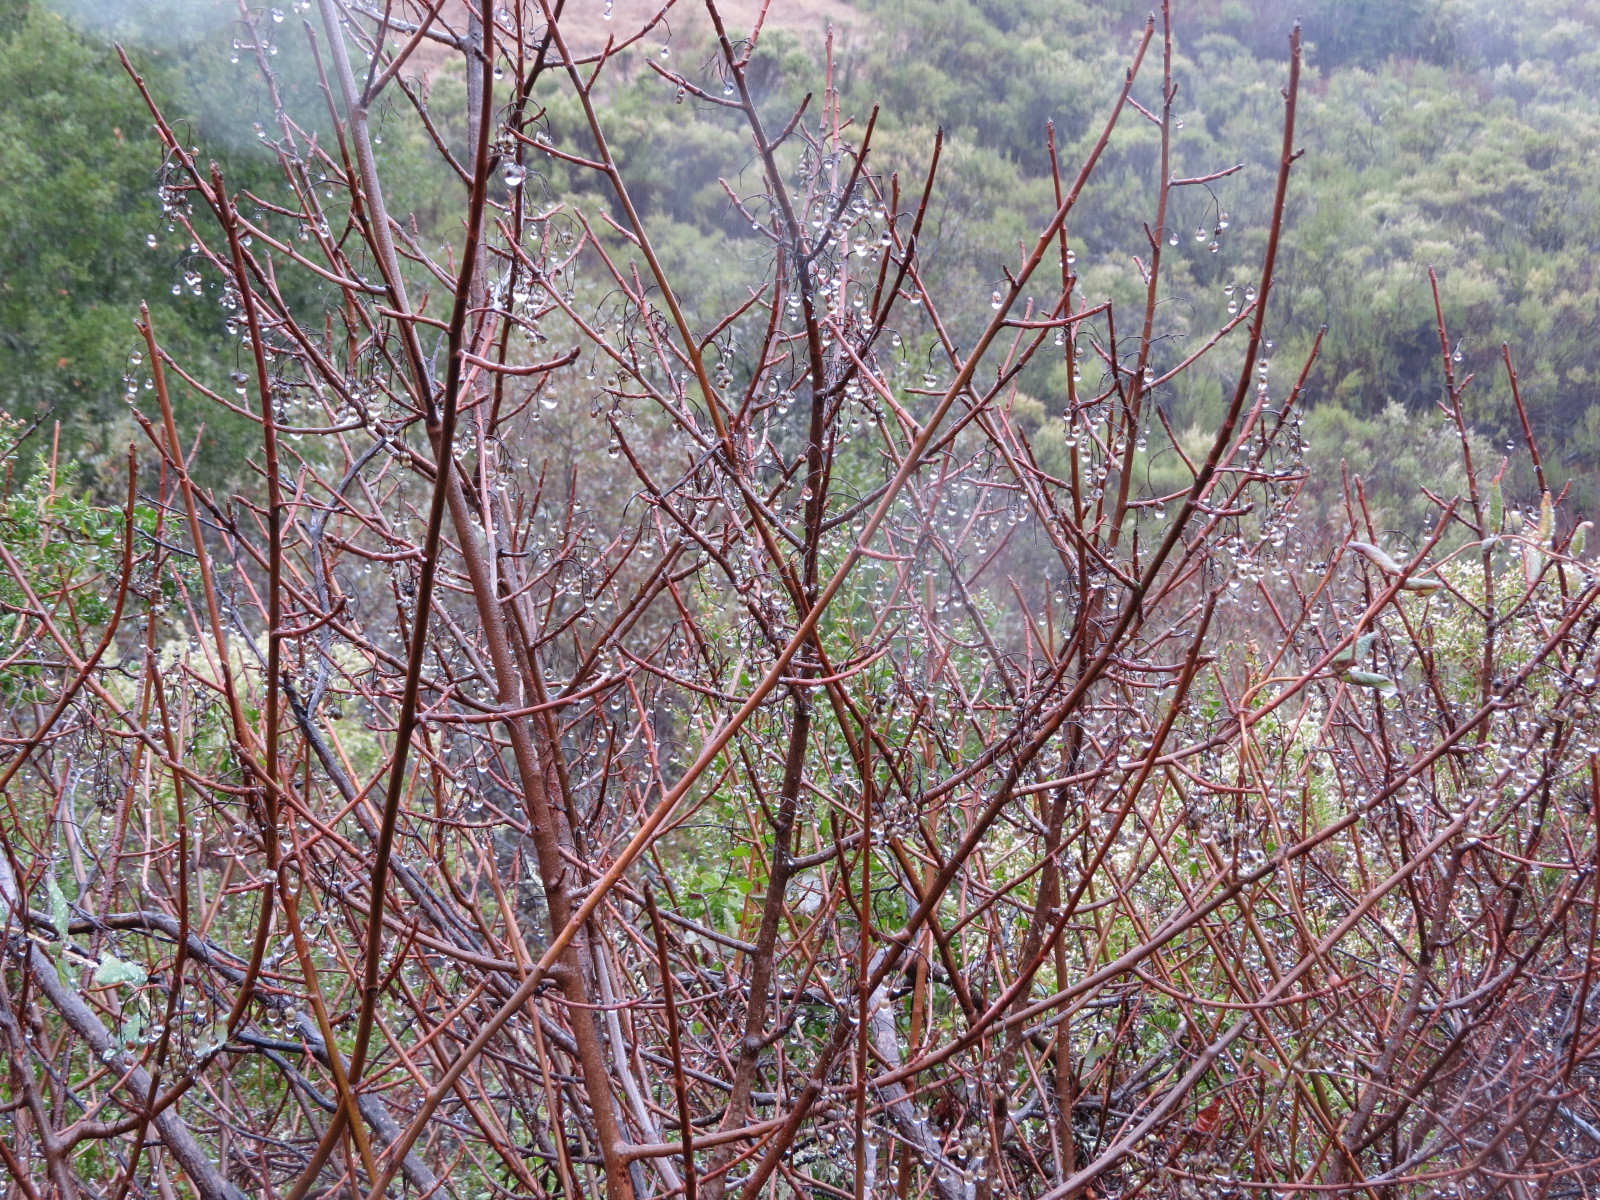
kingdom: Plantae
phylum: Tracheophyta
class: Magnoliopsida
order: Sapindales
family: Anacardiaceae
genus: Toxicodendron
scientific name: Toxicodendron diversilobum
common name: Pacific poison-oak
